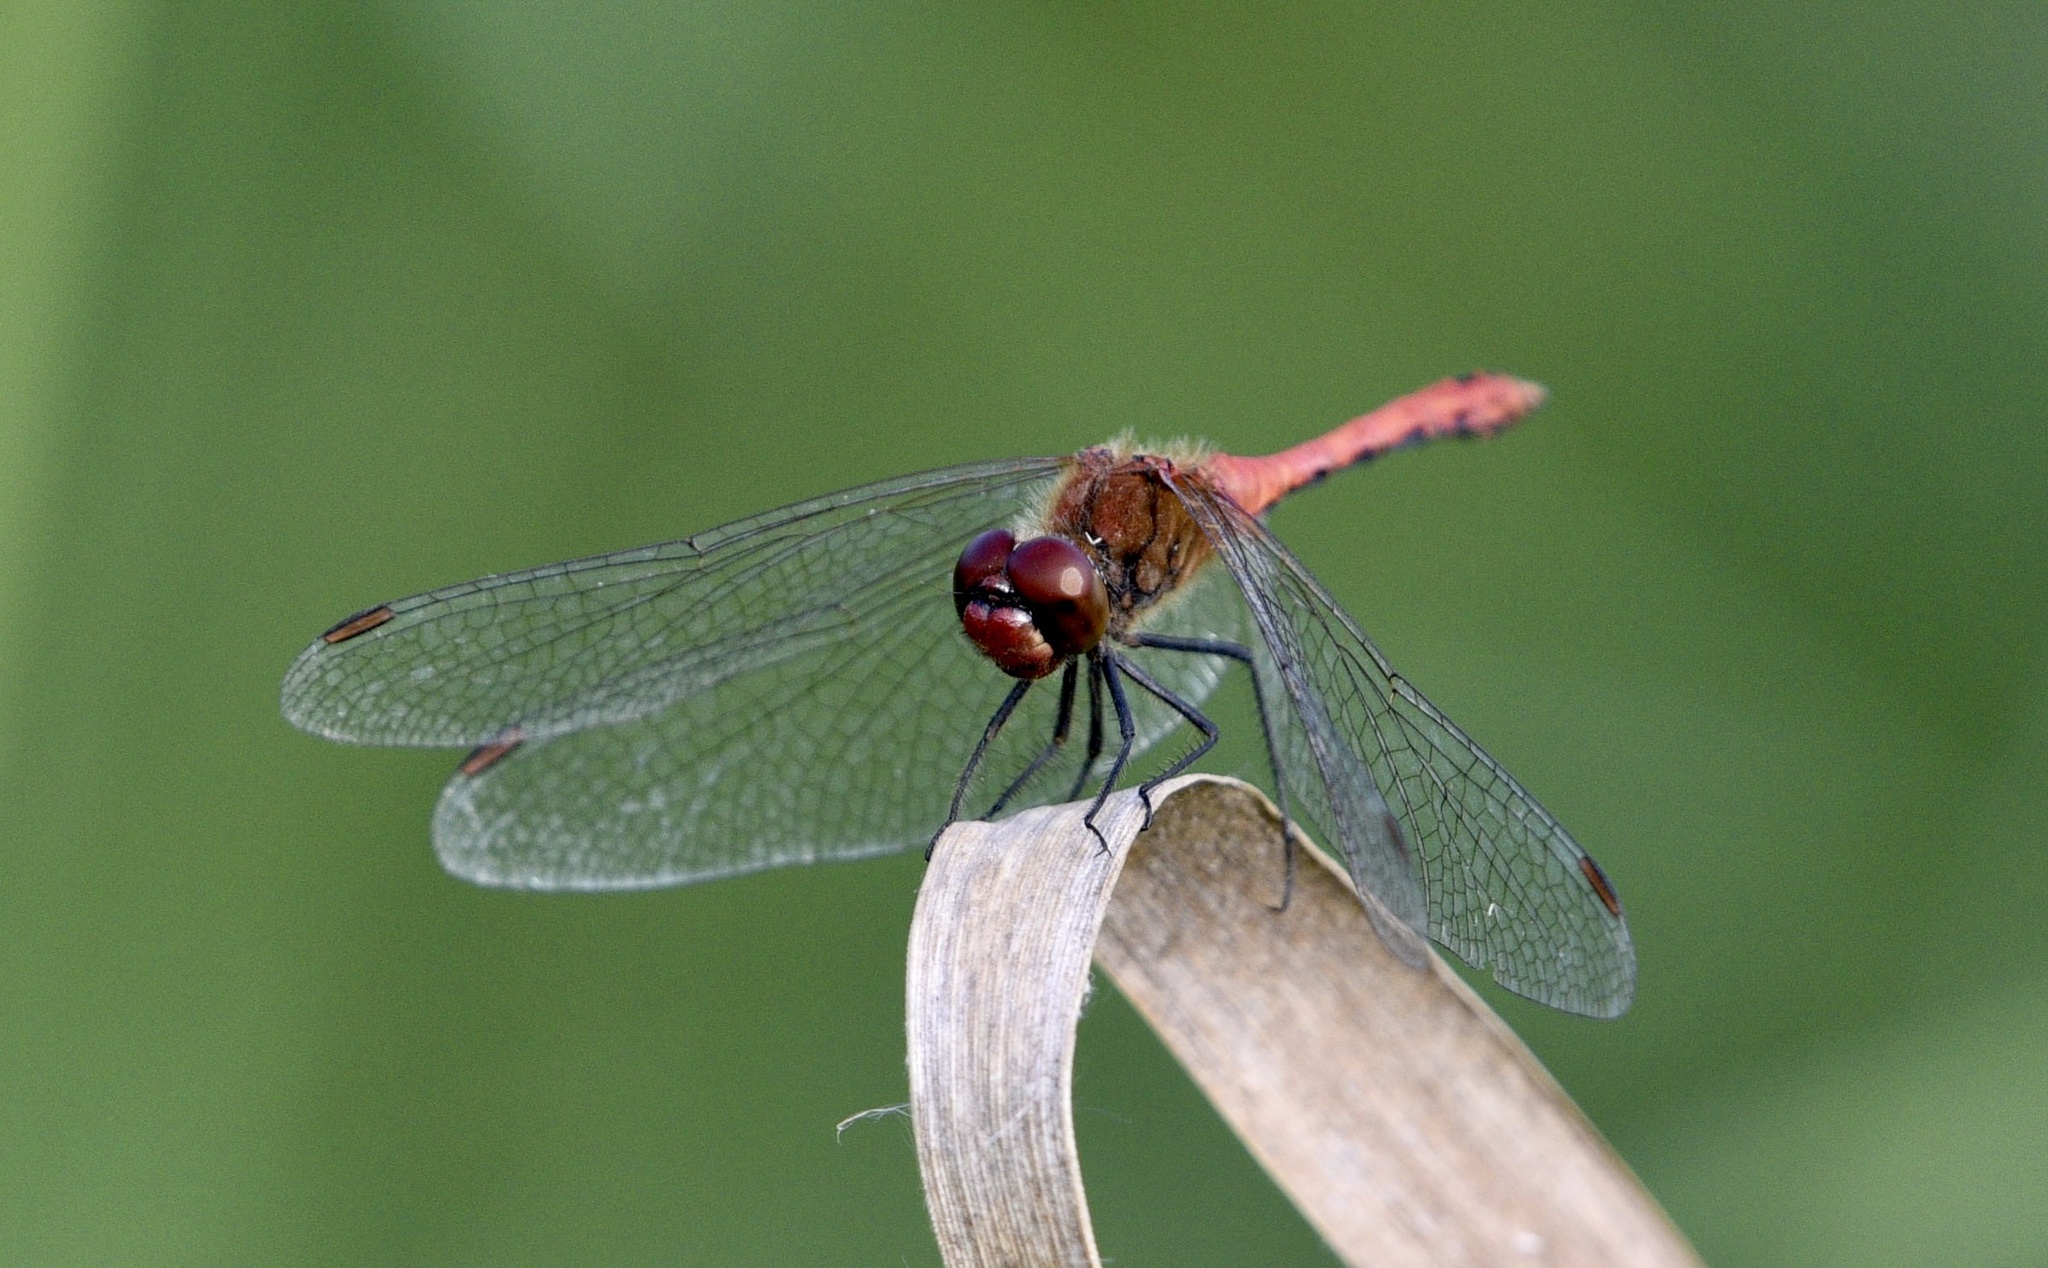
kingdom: Animalia
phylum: Arthropoda
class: Insecta
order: Odonata
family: Libellulidae
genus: Sympetrum
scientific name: Sympetrum sanguineum
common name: Ruddy darter
